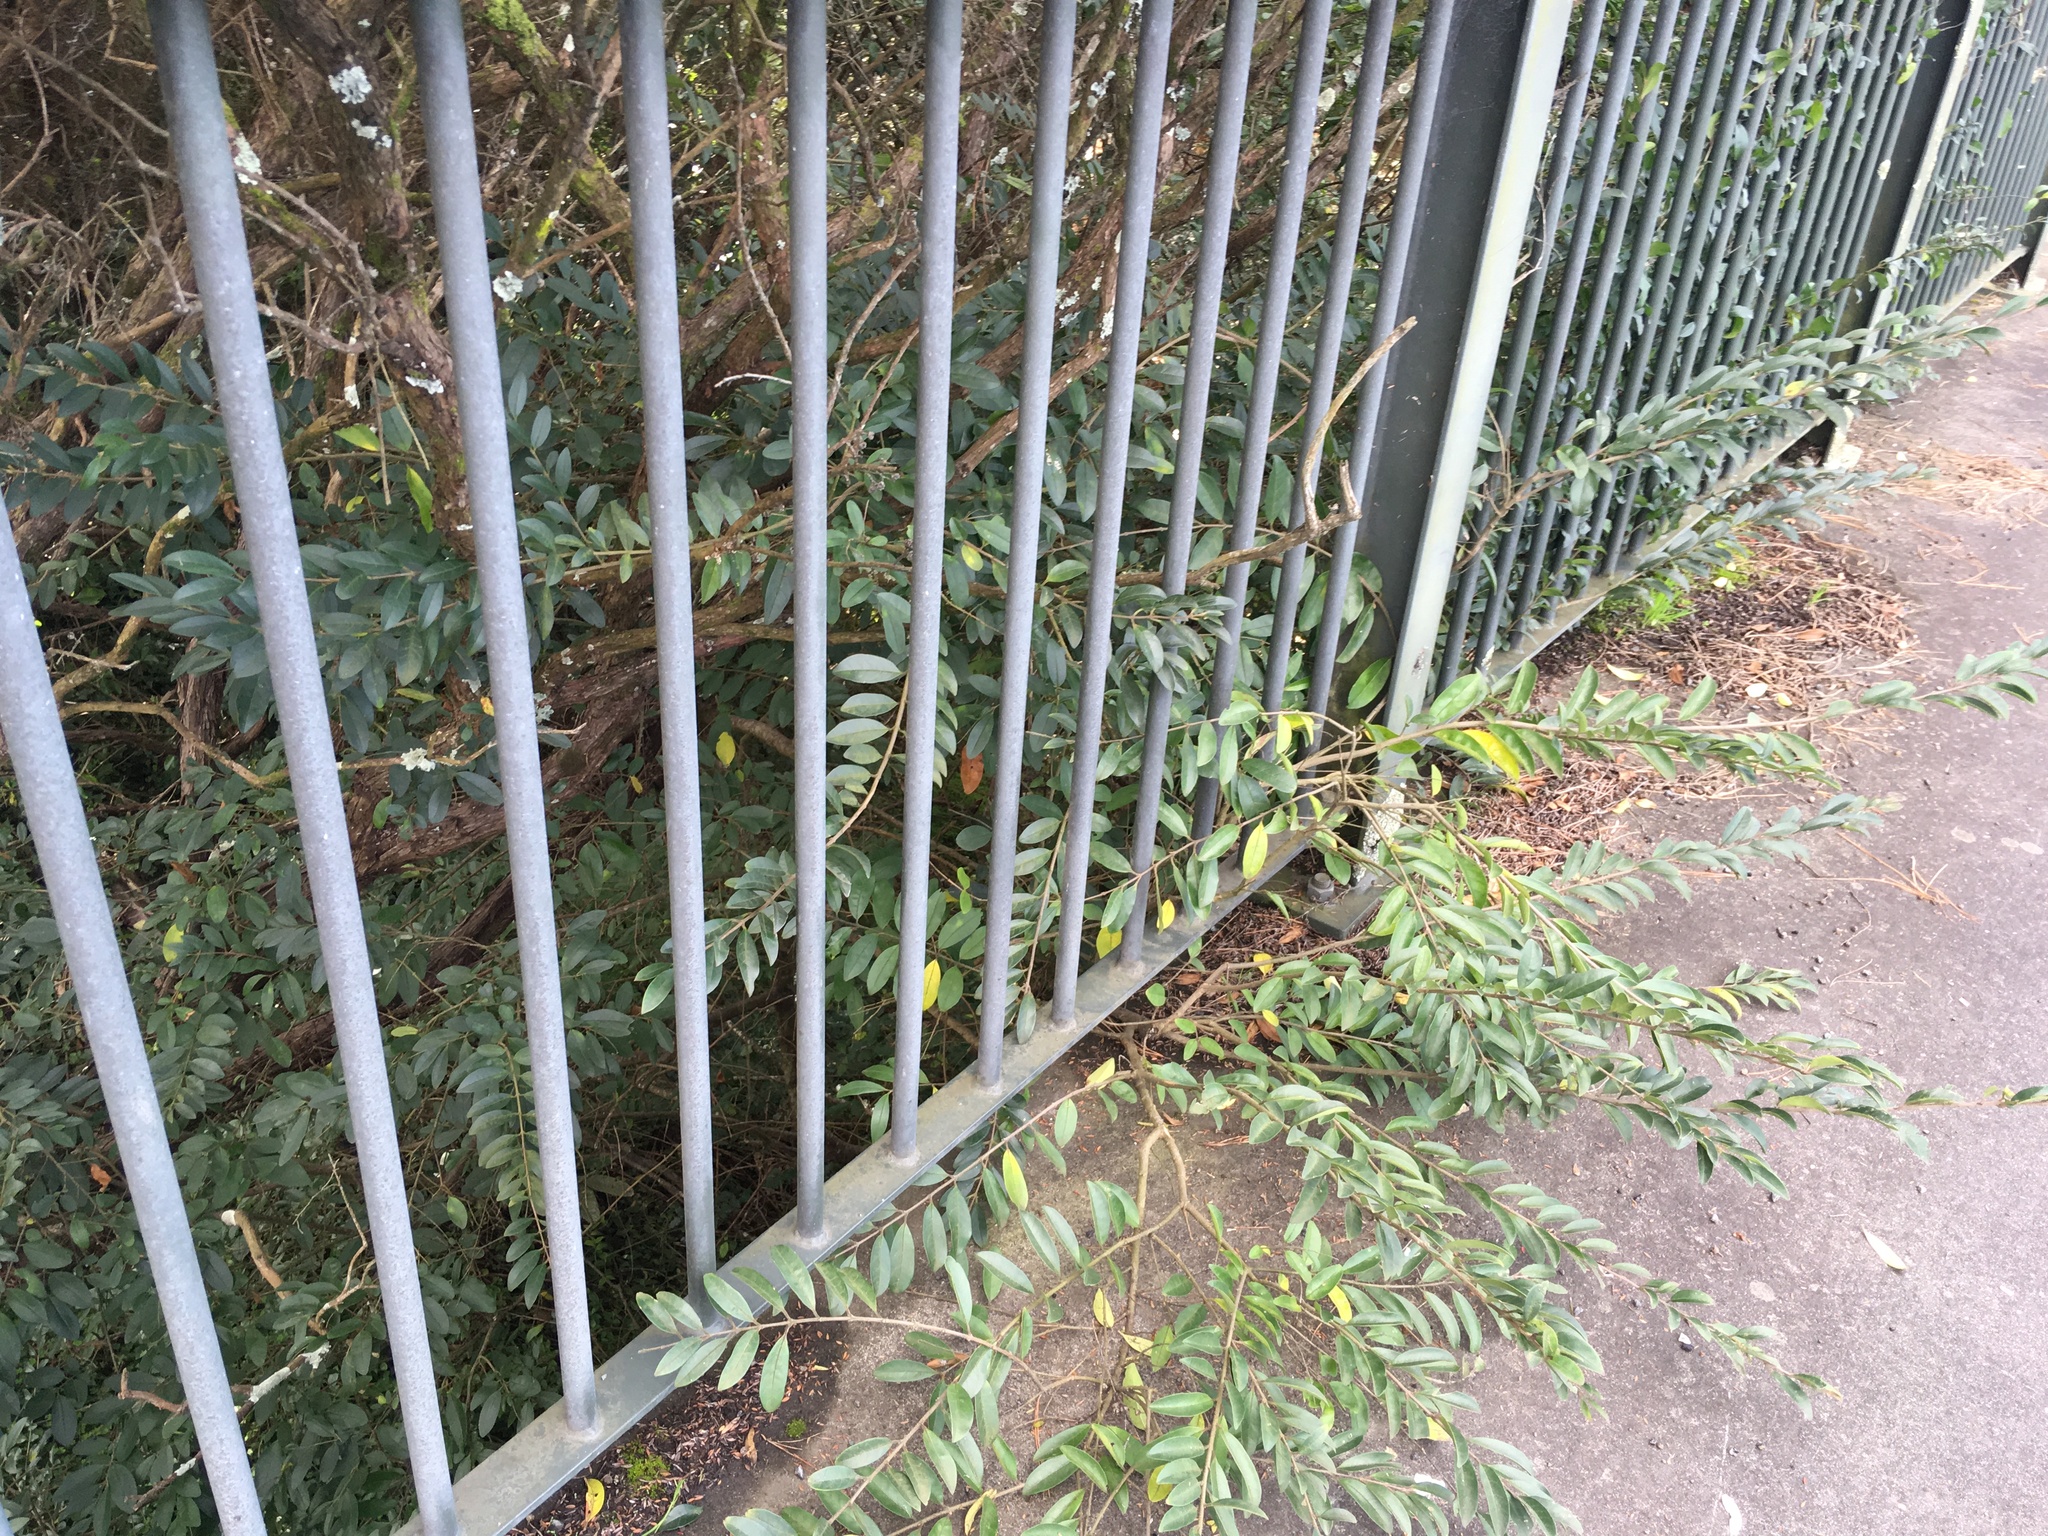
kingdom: Plantae
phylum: Tracheophyta
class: Magnoliopsida
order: Lamiales
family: Oleaceae
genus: Ligustrum
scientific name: Ligustrum lucidum
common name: Glossy privet
